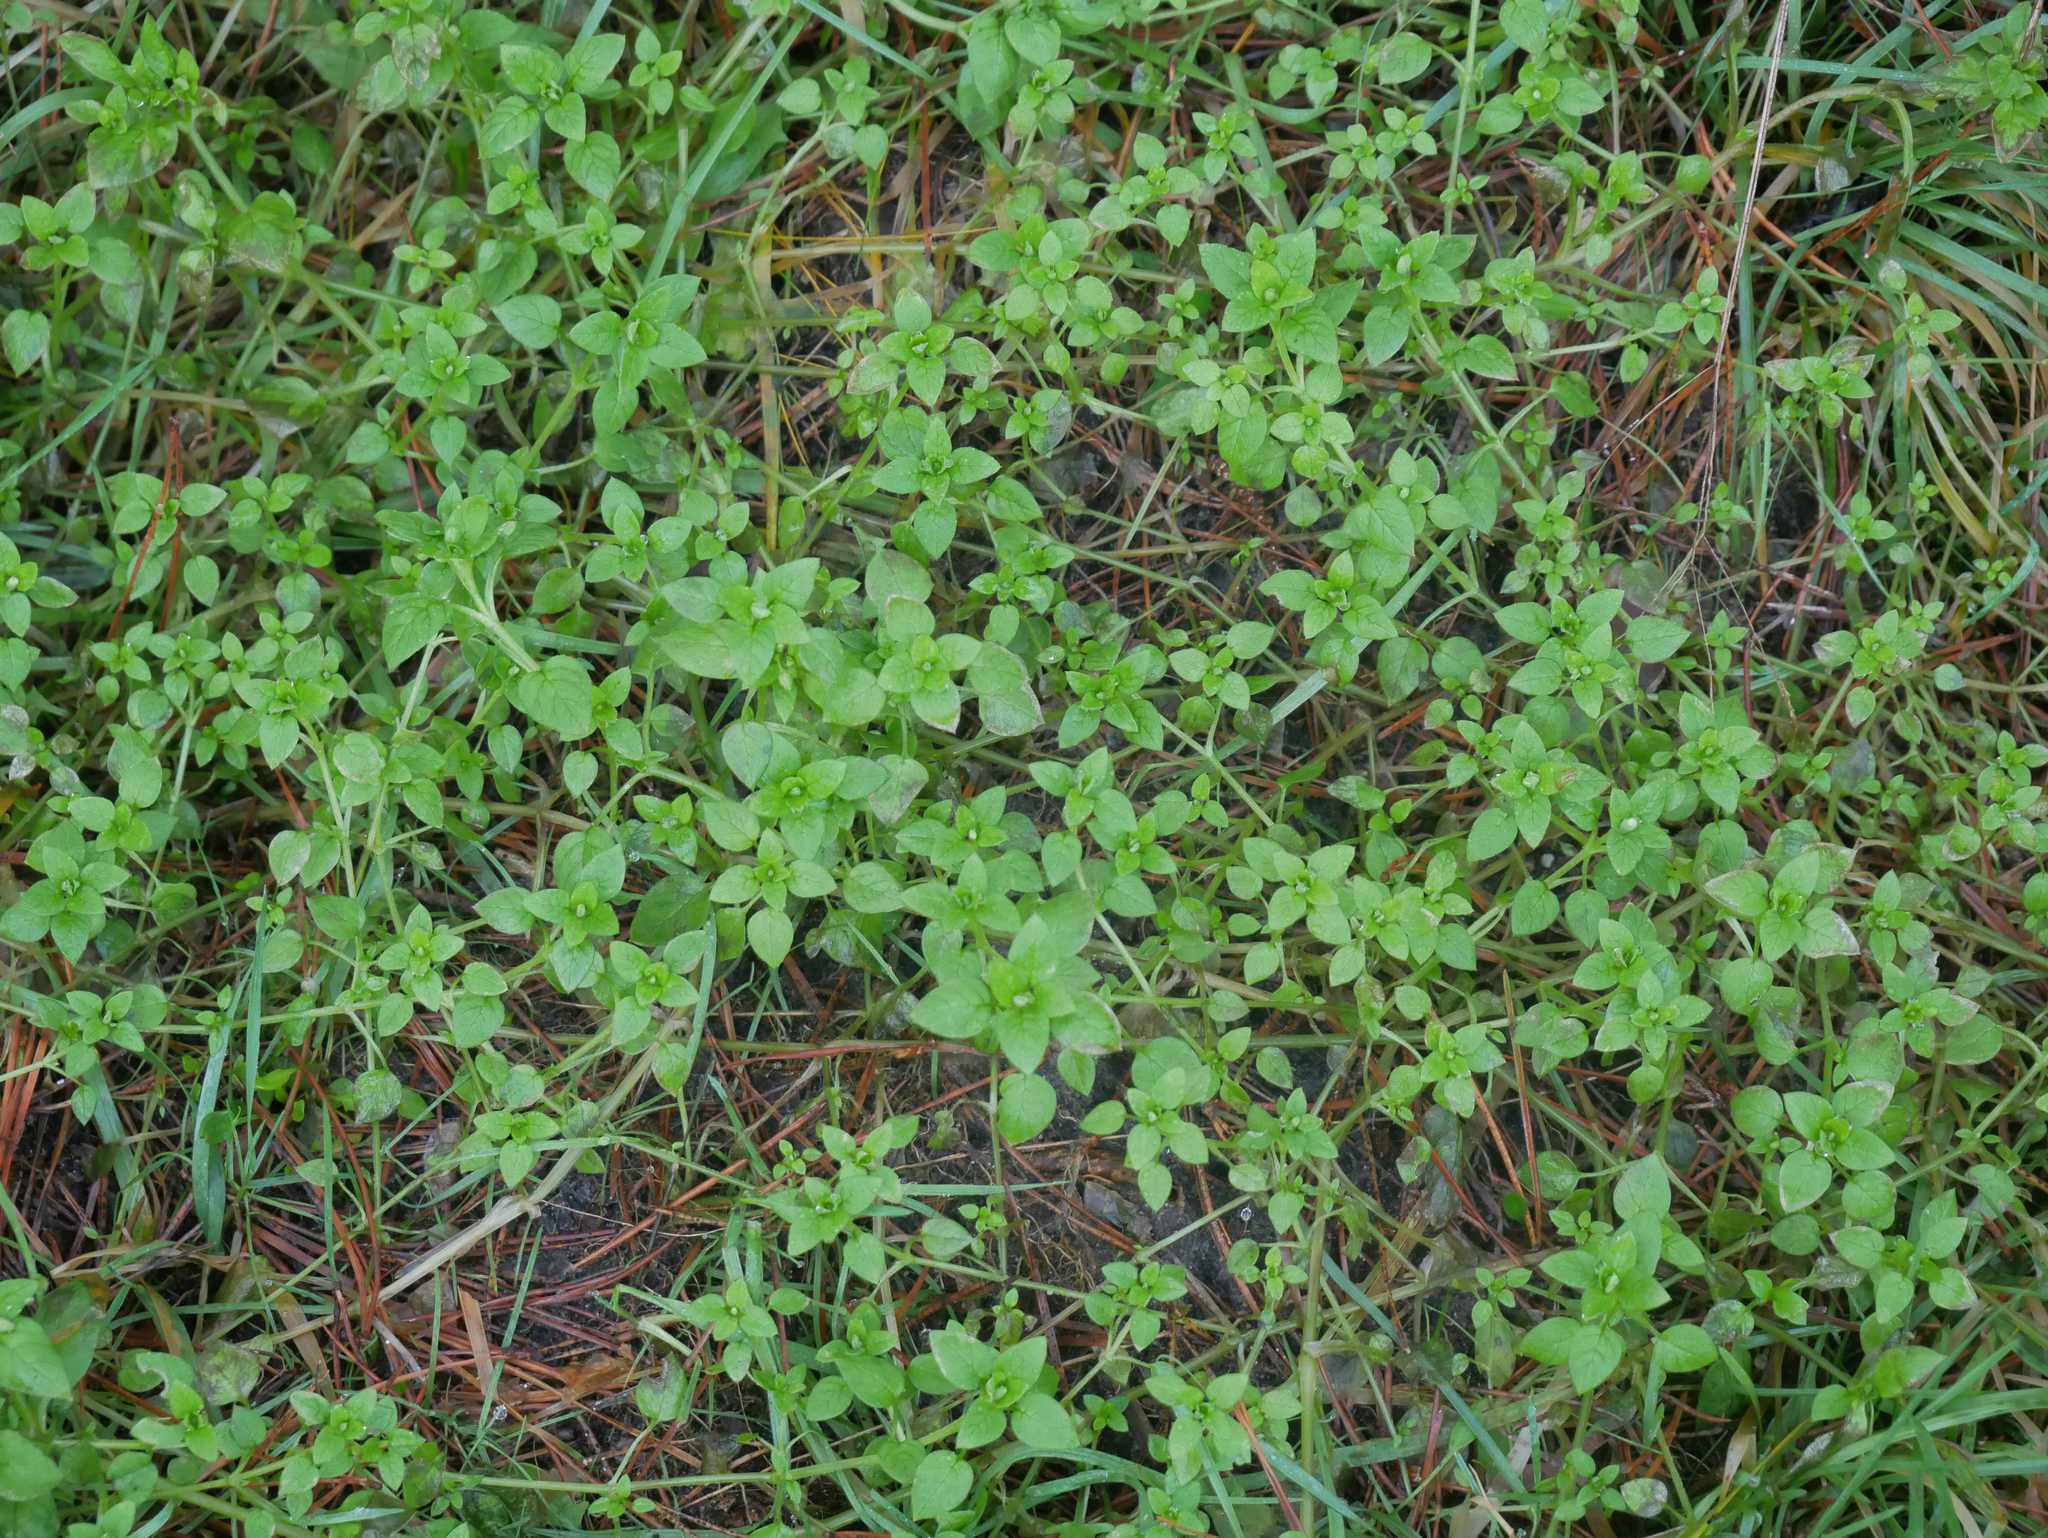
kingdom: Plantae
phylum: Tracheophyta
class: Magnoliopsida
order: Caryophyllales
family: Caryophyllaceae
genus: Stellaria
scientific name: Stellaria media
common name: Common chickweed
